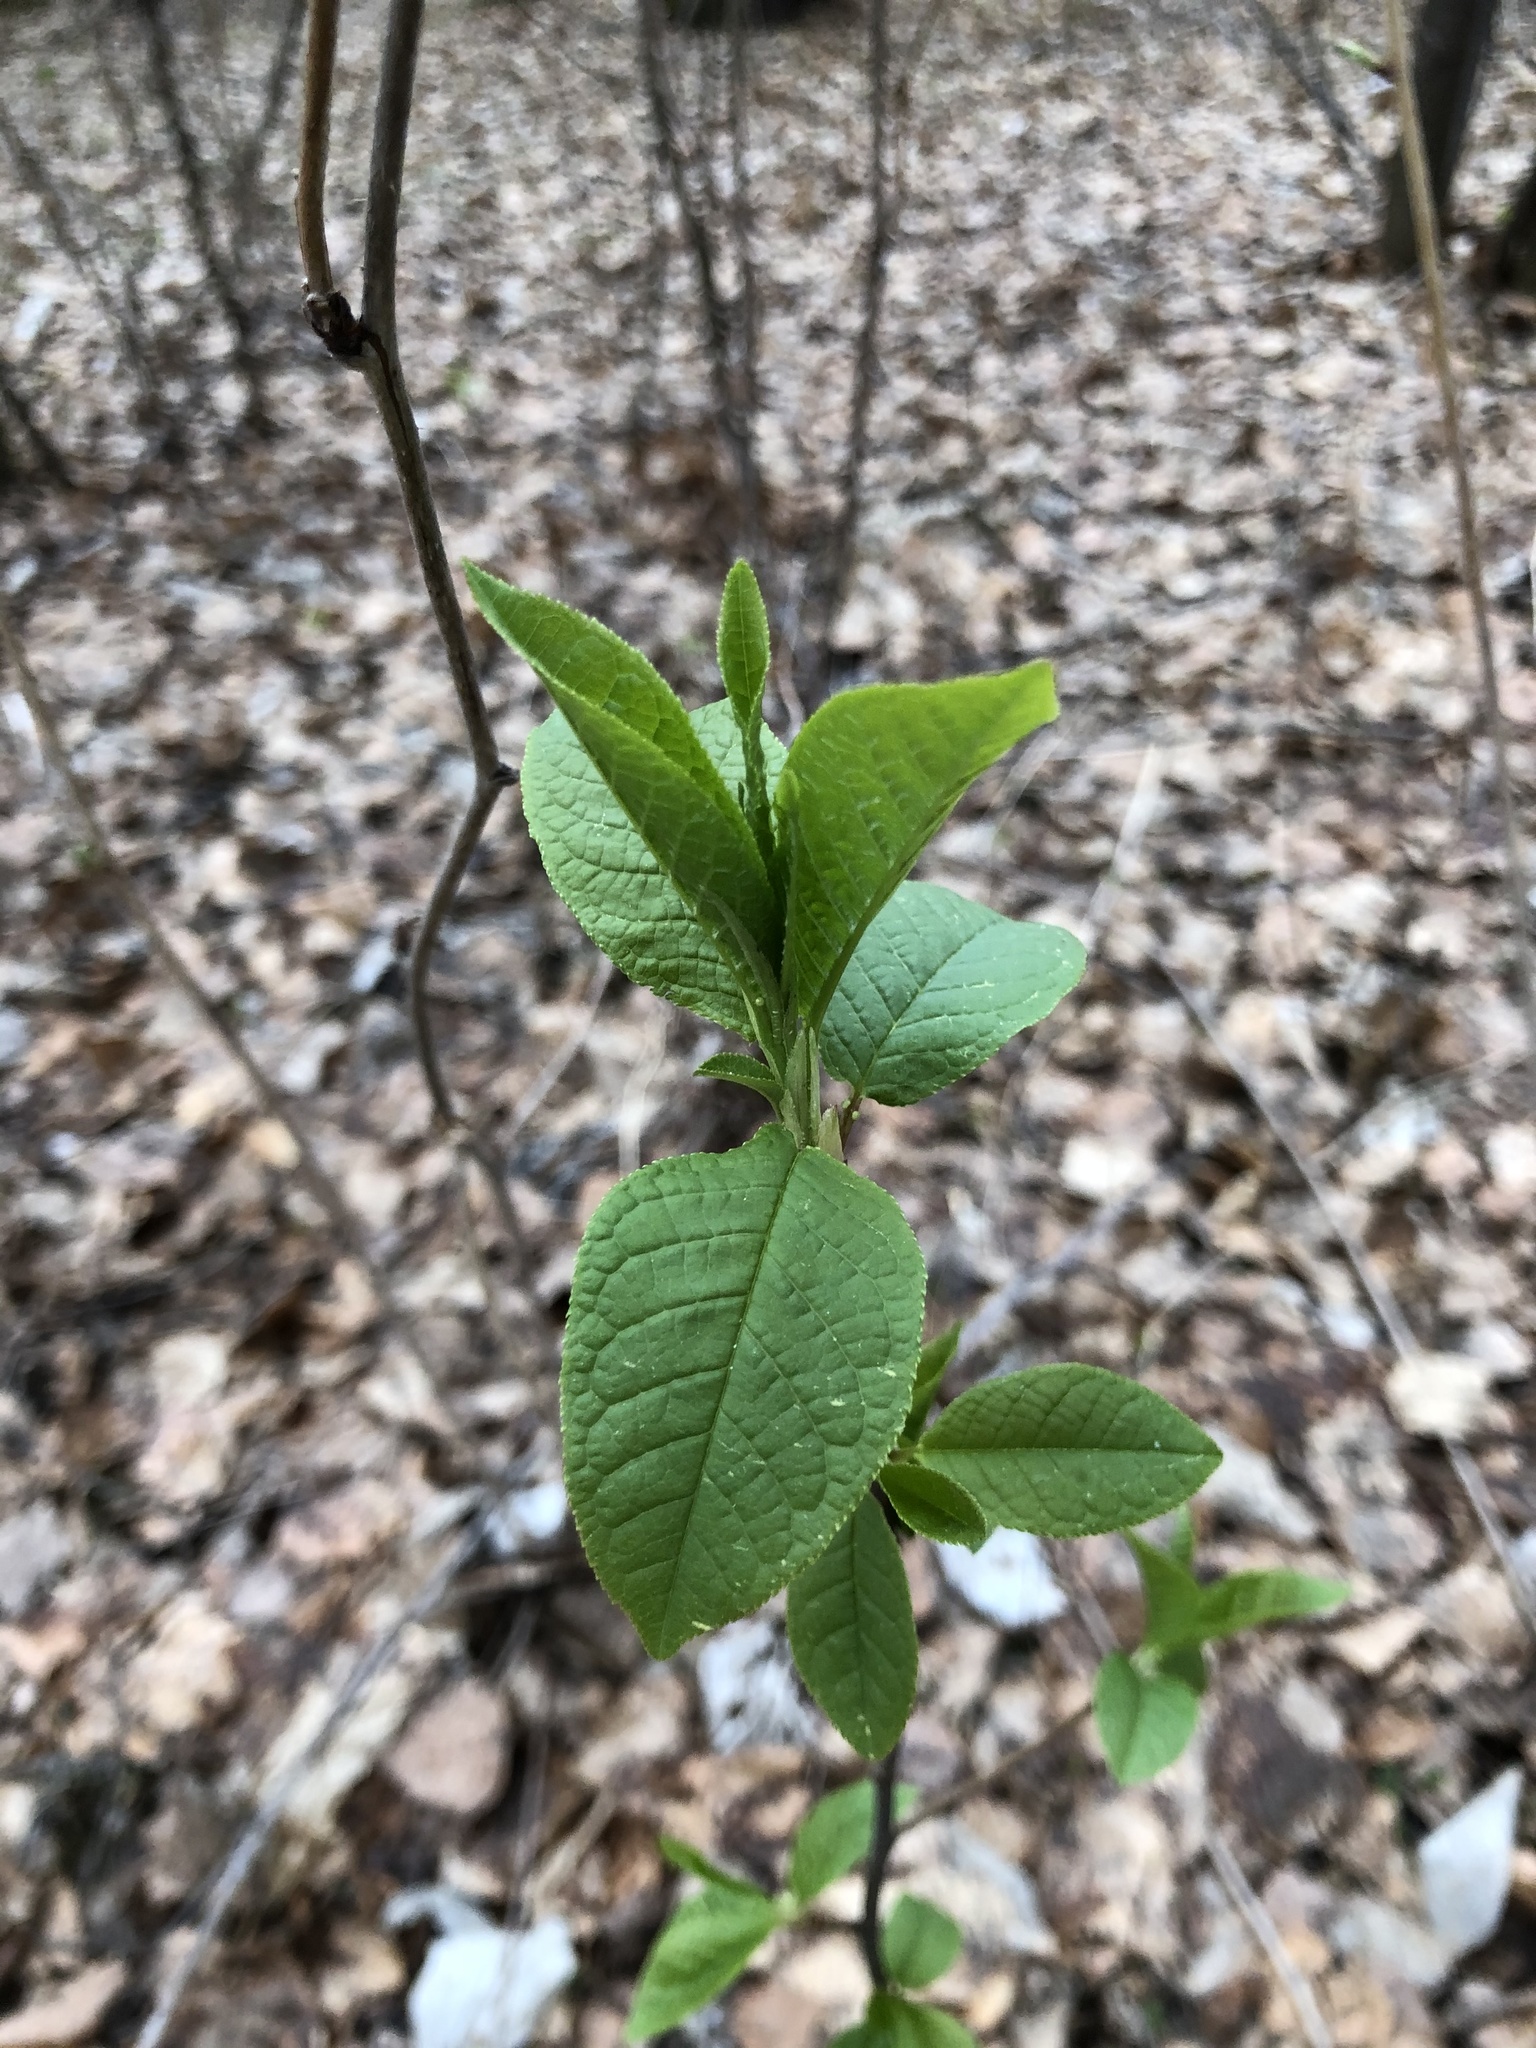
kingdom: Plantae
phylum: Tracheophyta
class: Magnoliopsida
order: Rosales
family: Rosaceae
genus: Prunus
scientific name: Prunus padus
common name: Bird cherry
